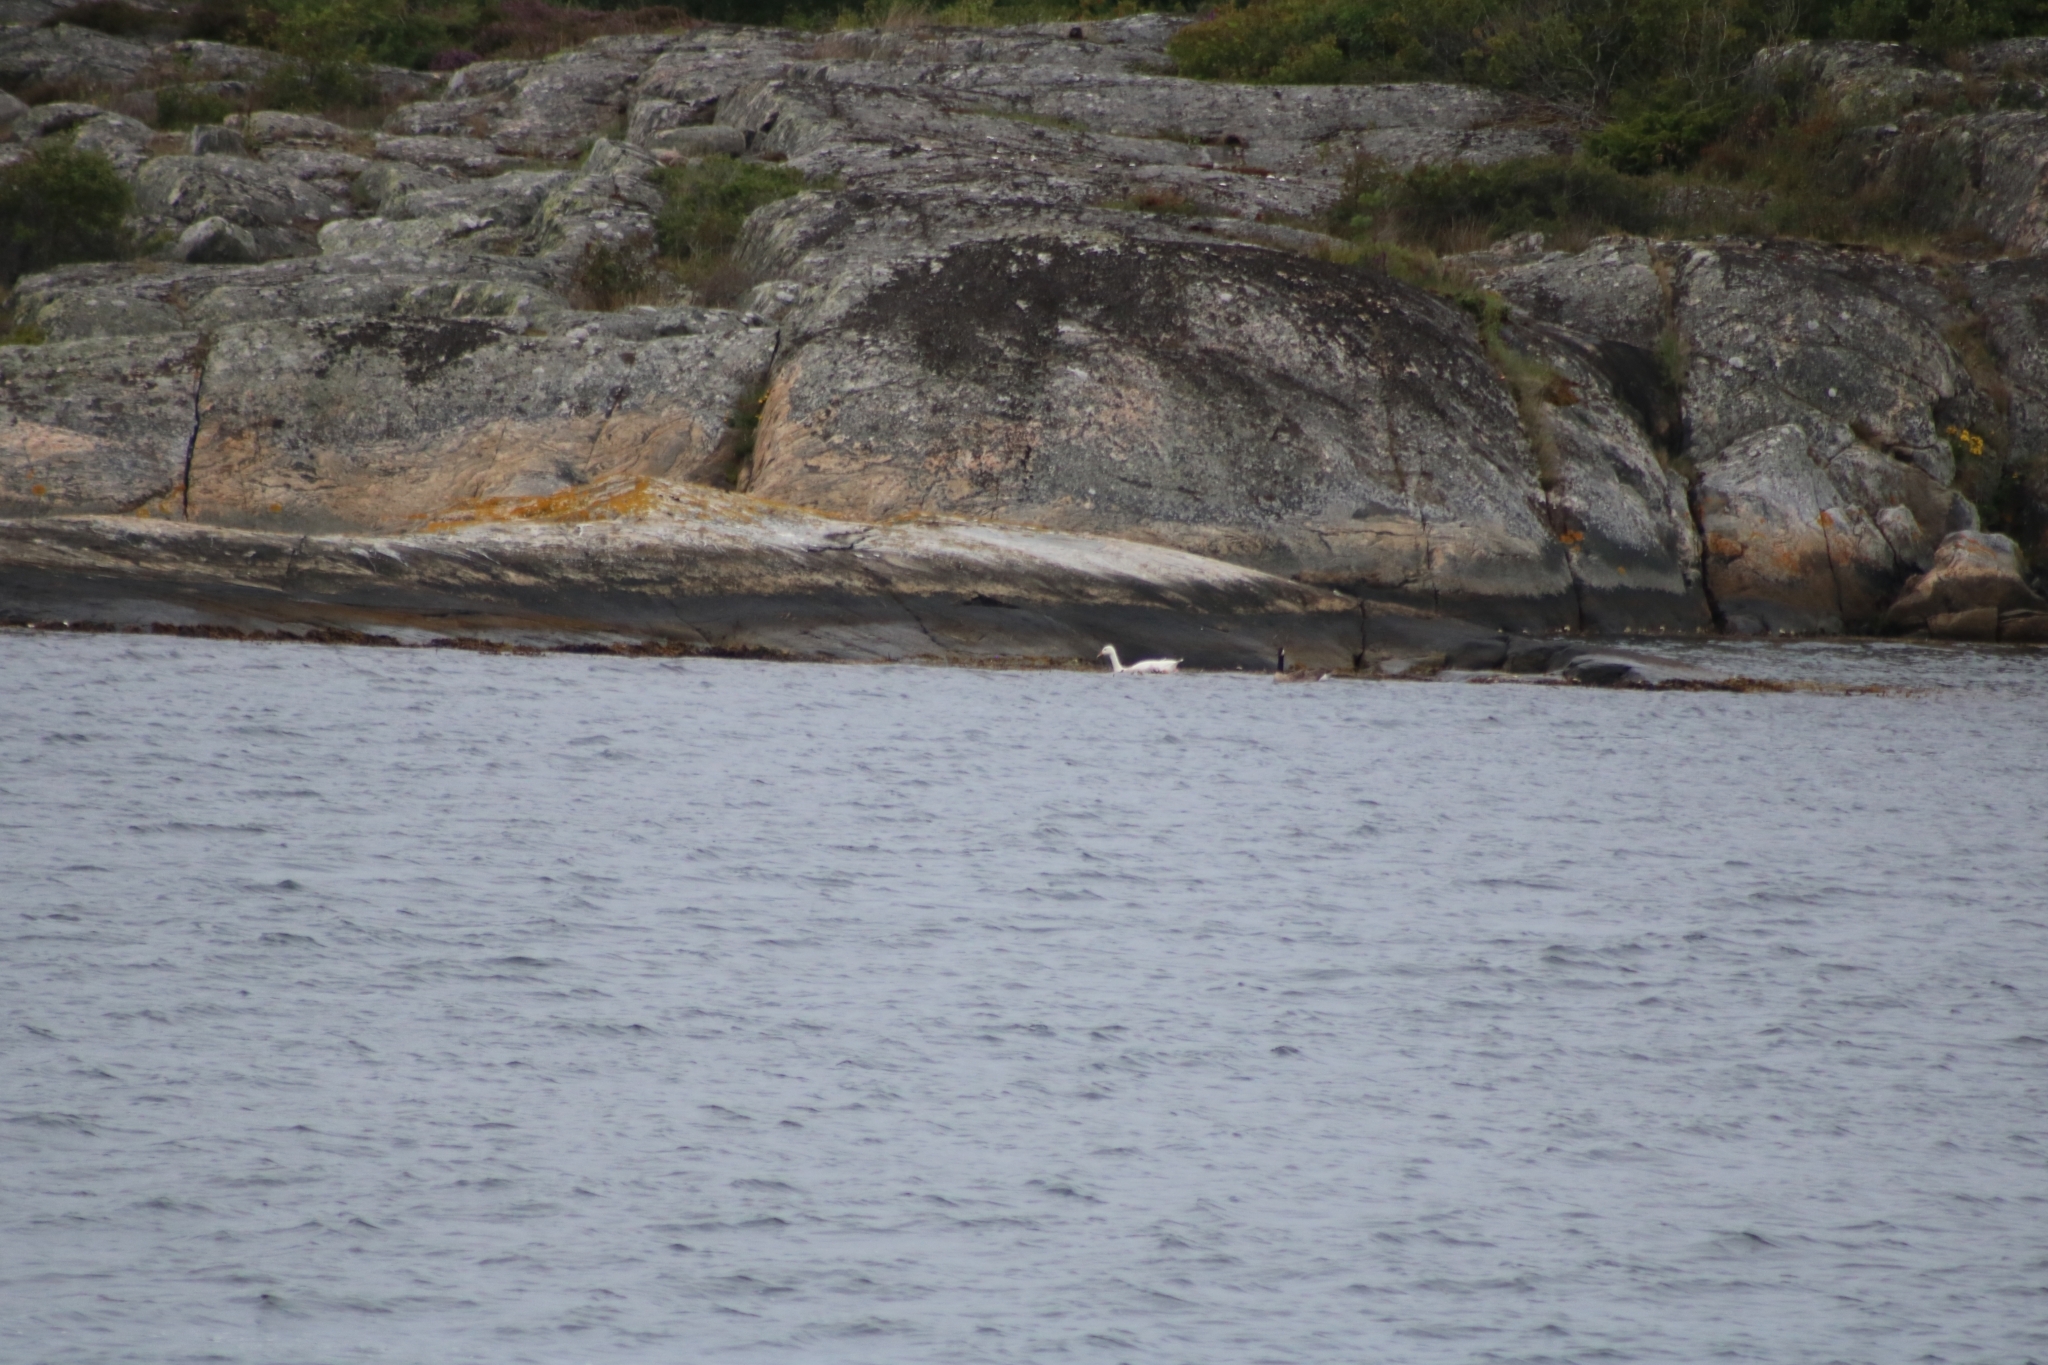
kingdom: Animalia
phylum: Chordata
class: Aves
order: Anseriformes
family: Anatidae
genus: Anser
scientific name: Anser anser
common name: Greylag goose
